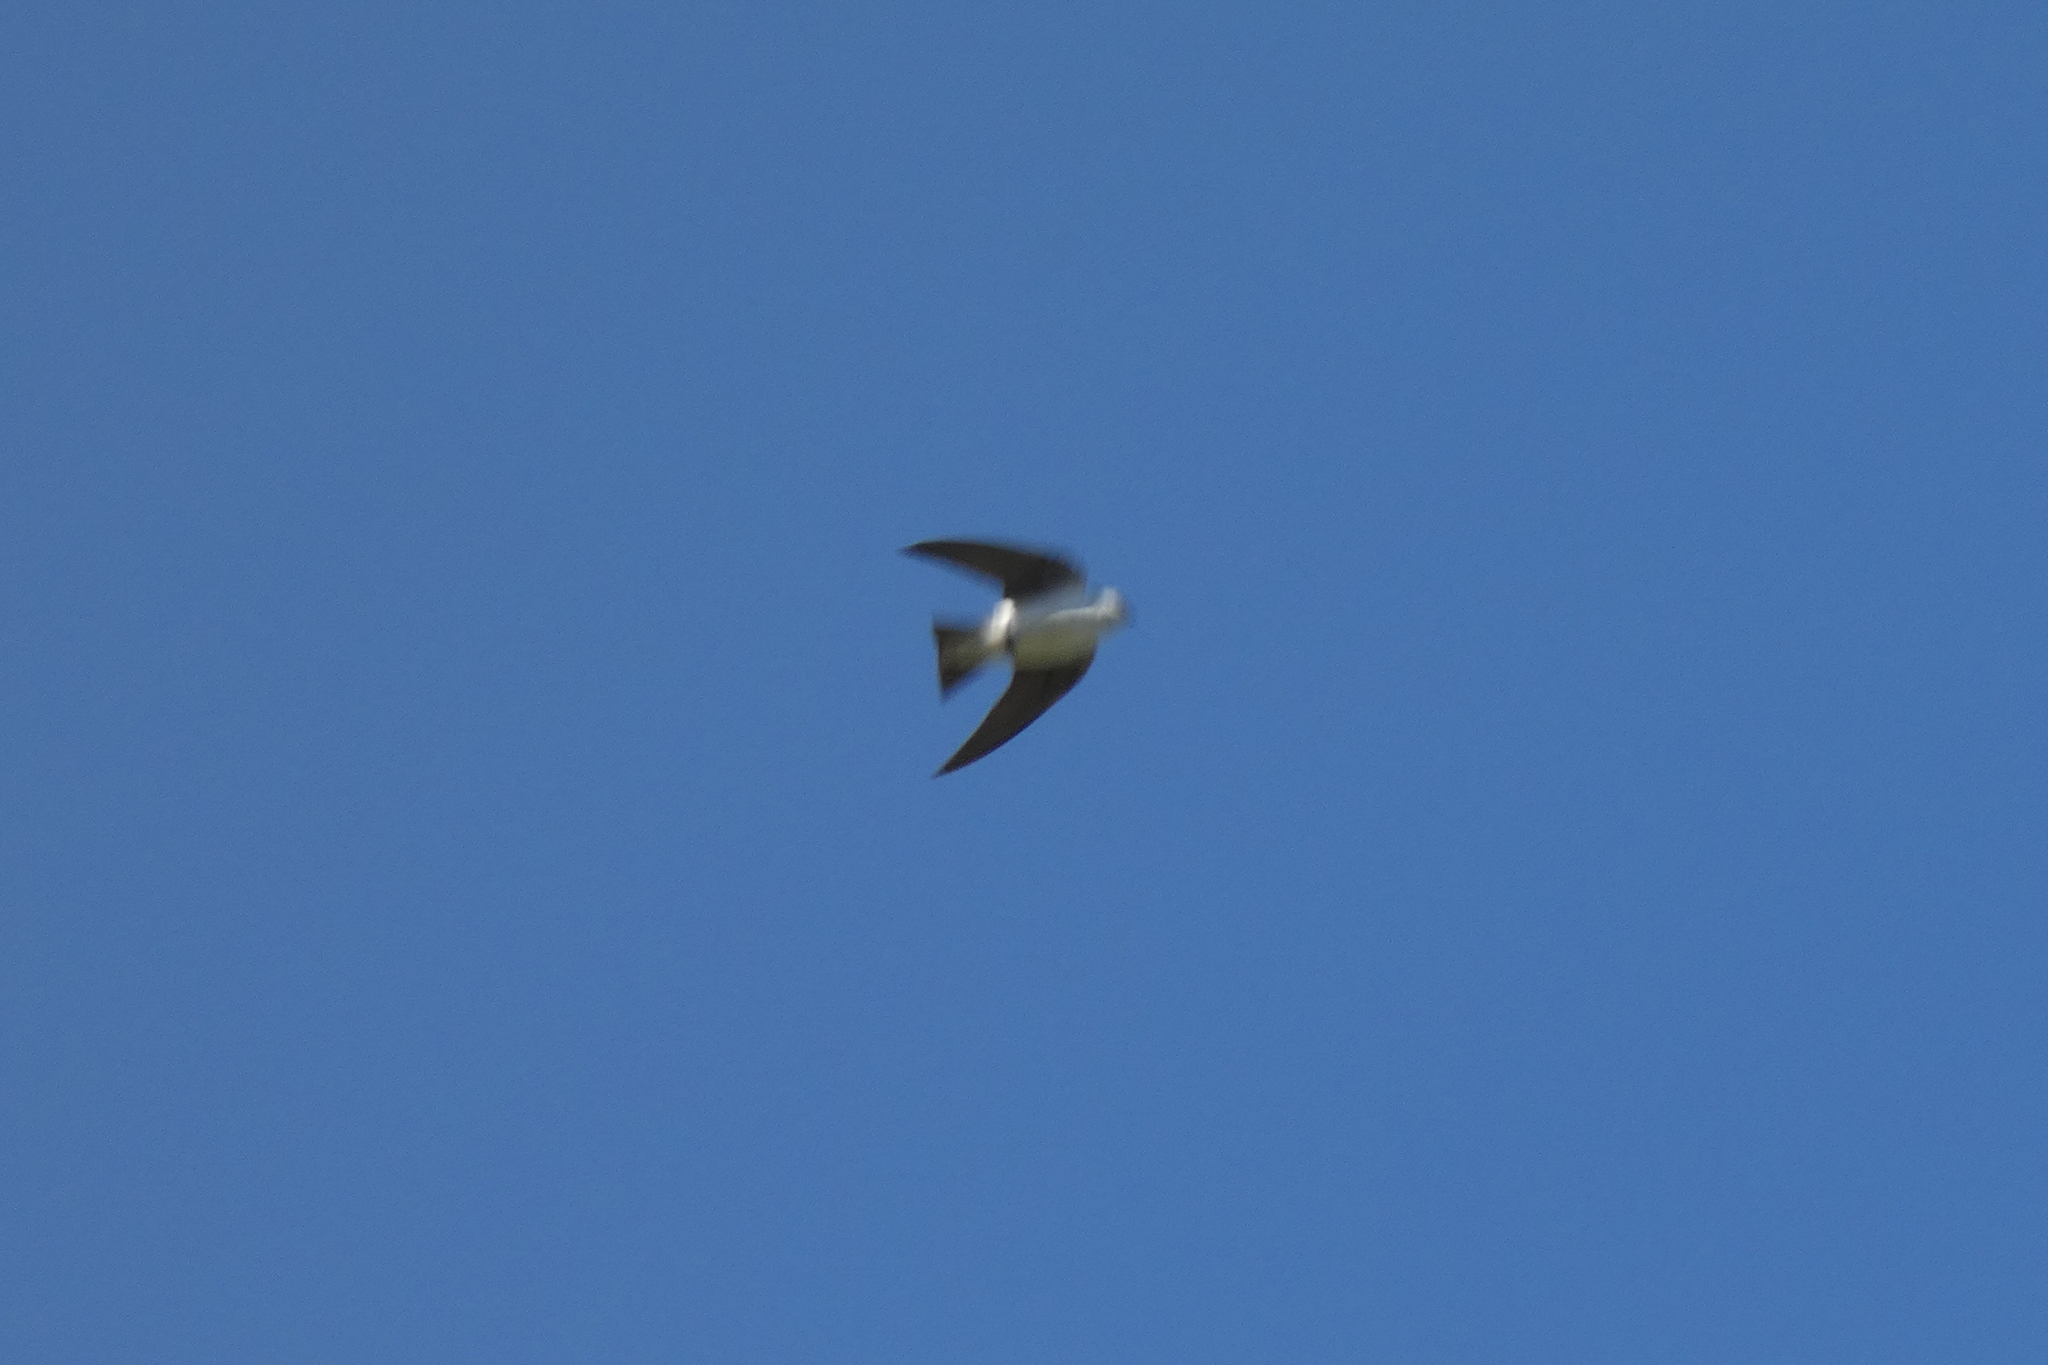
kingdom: Animalia
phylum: Chordata
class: Aves
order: Passeriformes
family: Hirundinidae
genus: Tachycineta
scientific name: Tachycineta thalassina
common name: Violet-green swallow
